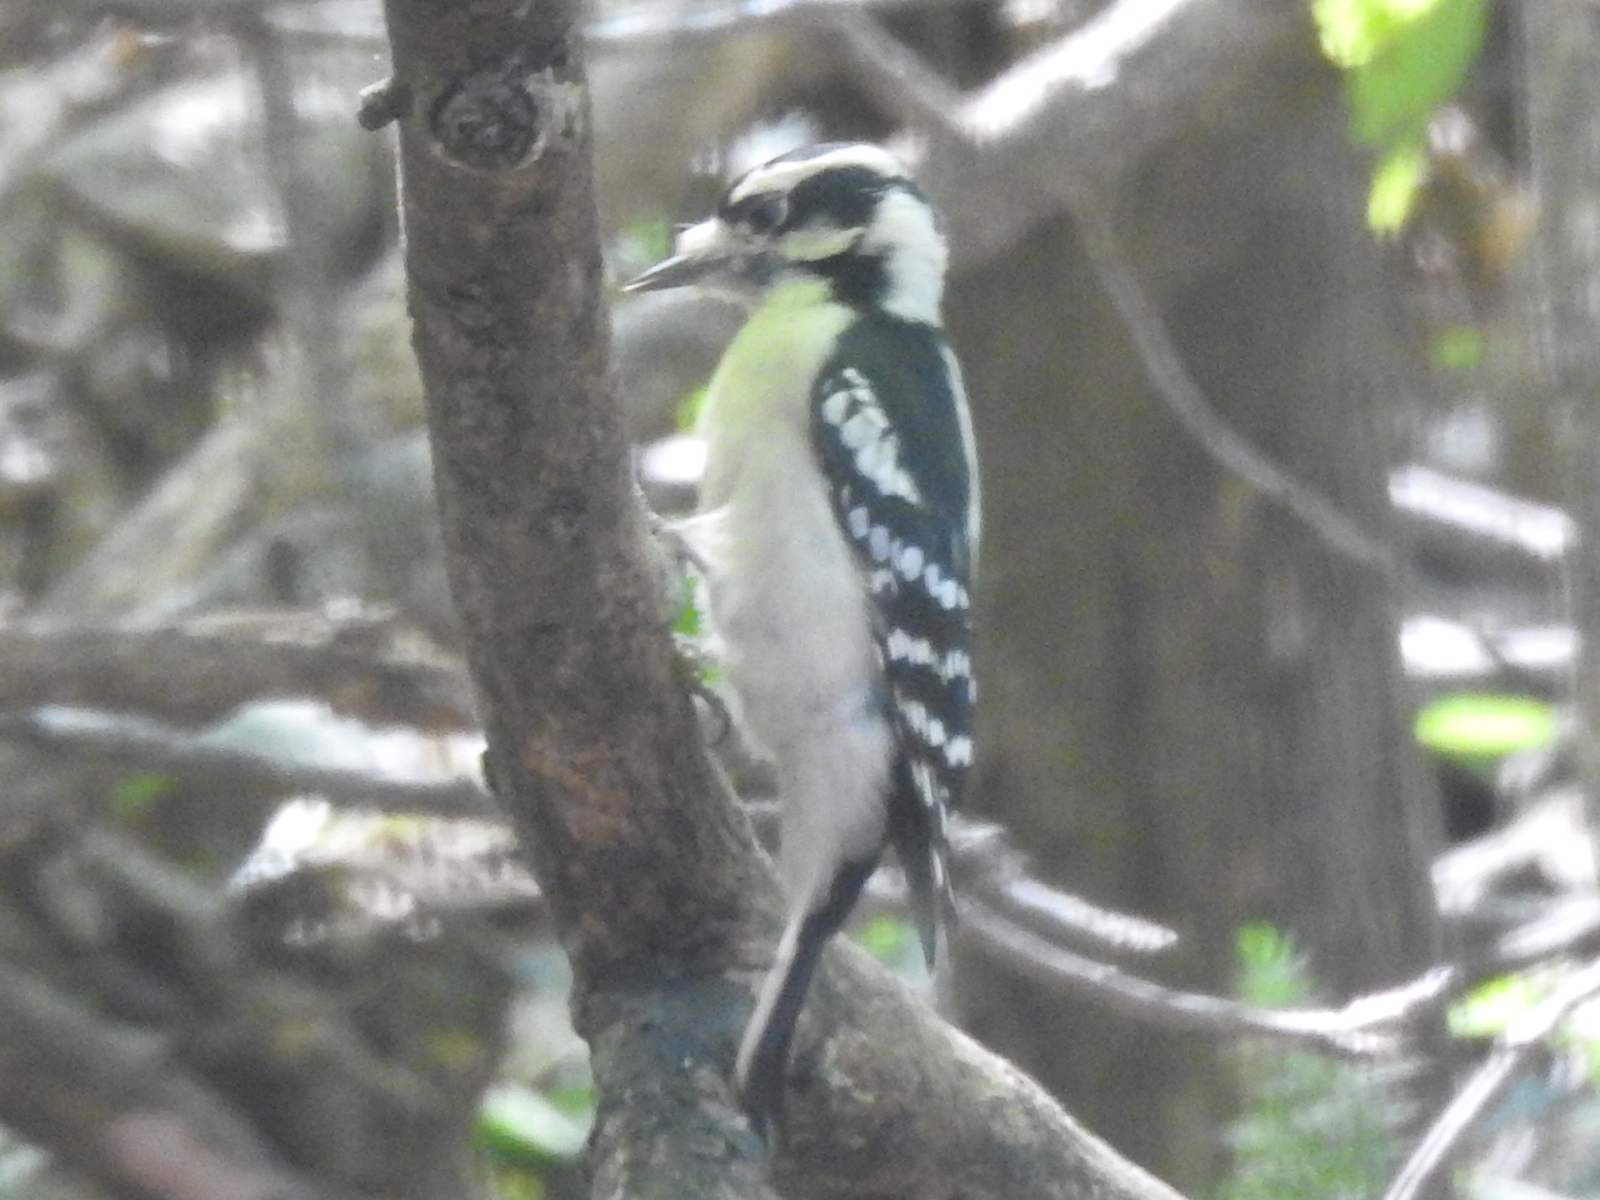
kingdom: Animalia
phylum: Chordata
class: Aves
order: Piciformes
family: Picidae
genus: Dryobates
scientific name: Dryobates pubescens
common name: Downy woodpecker
